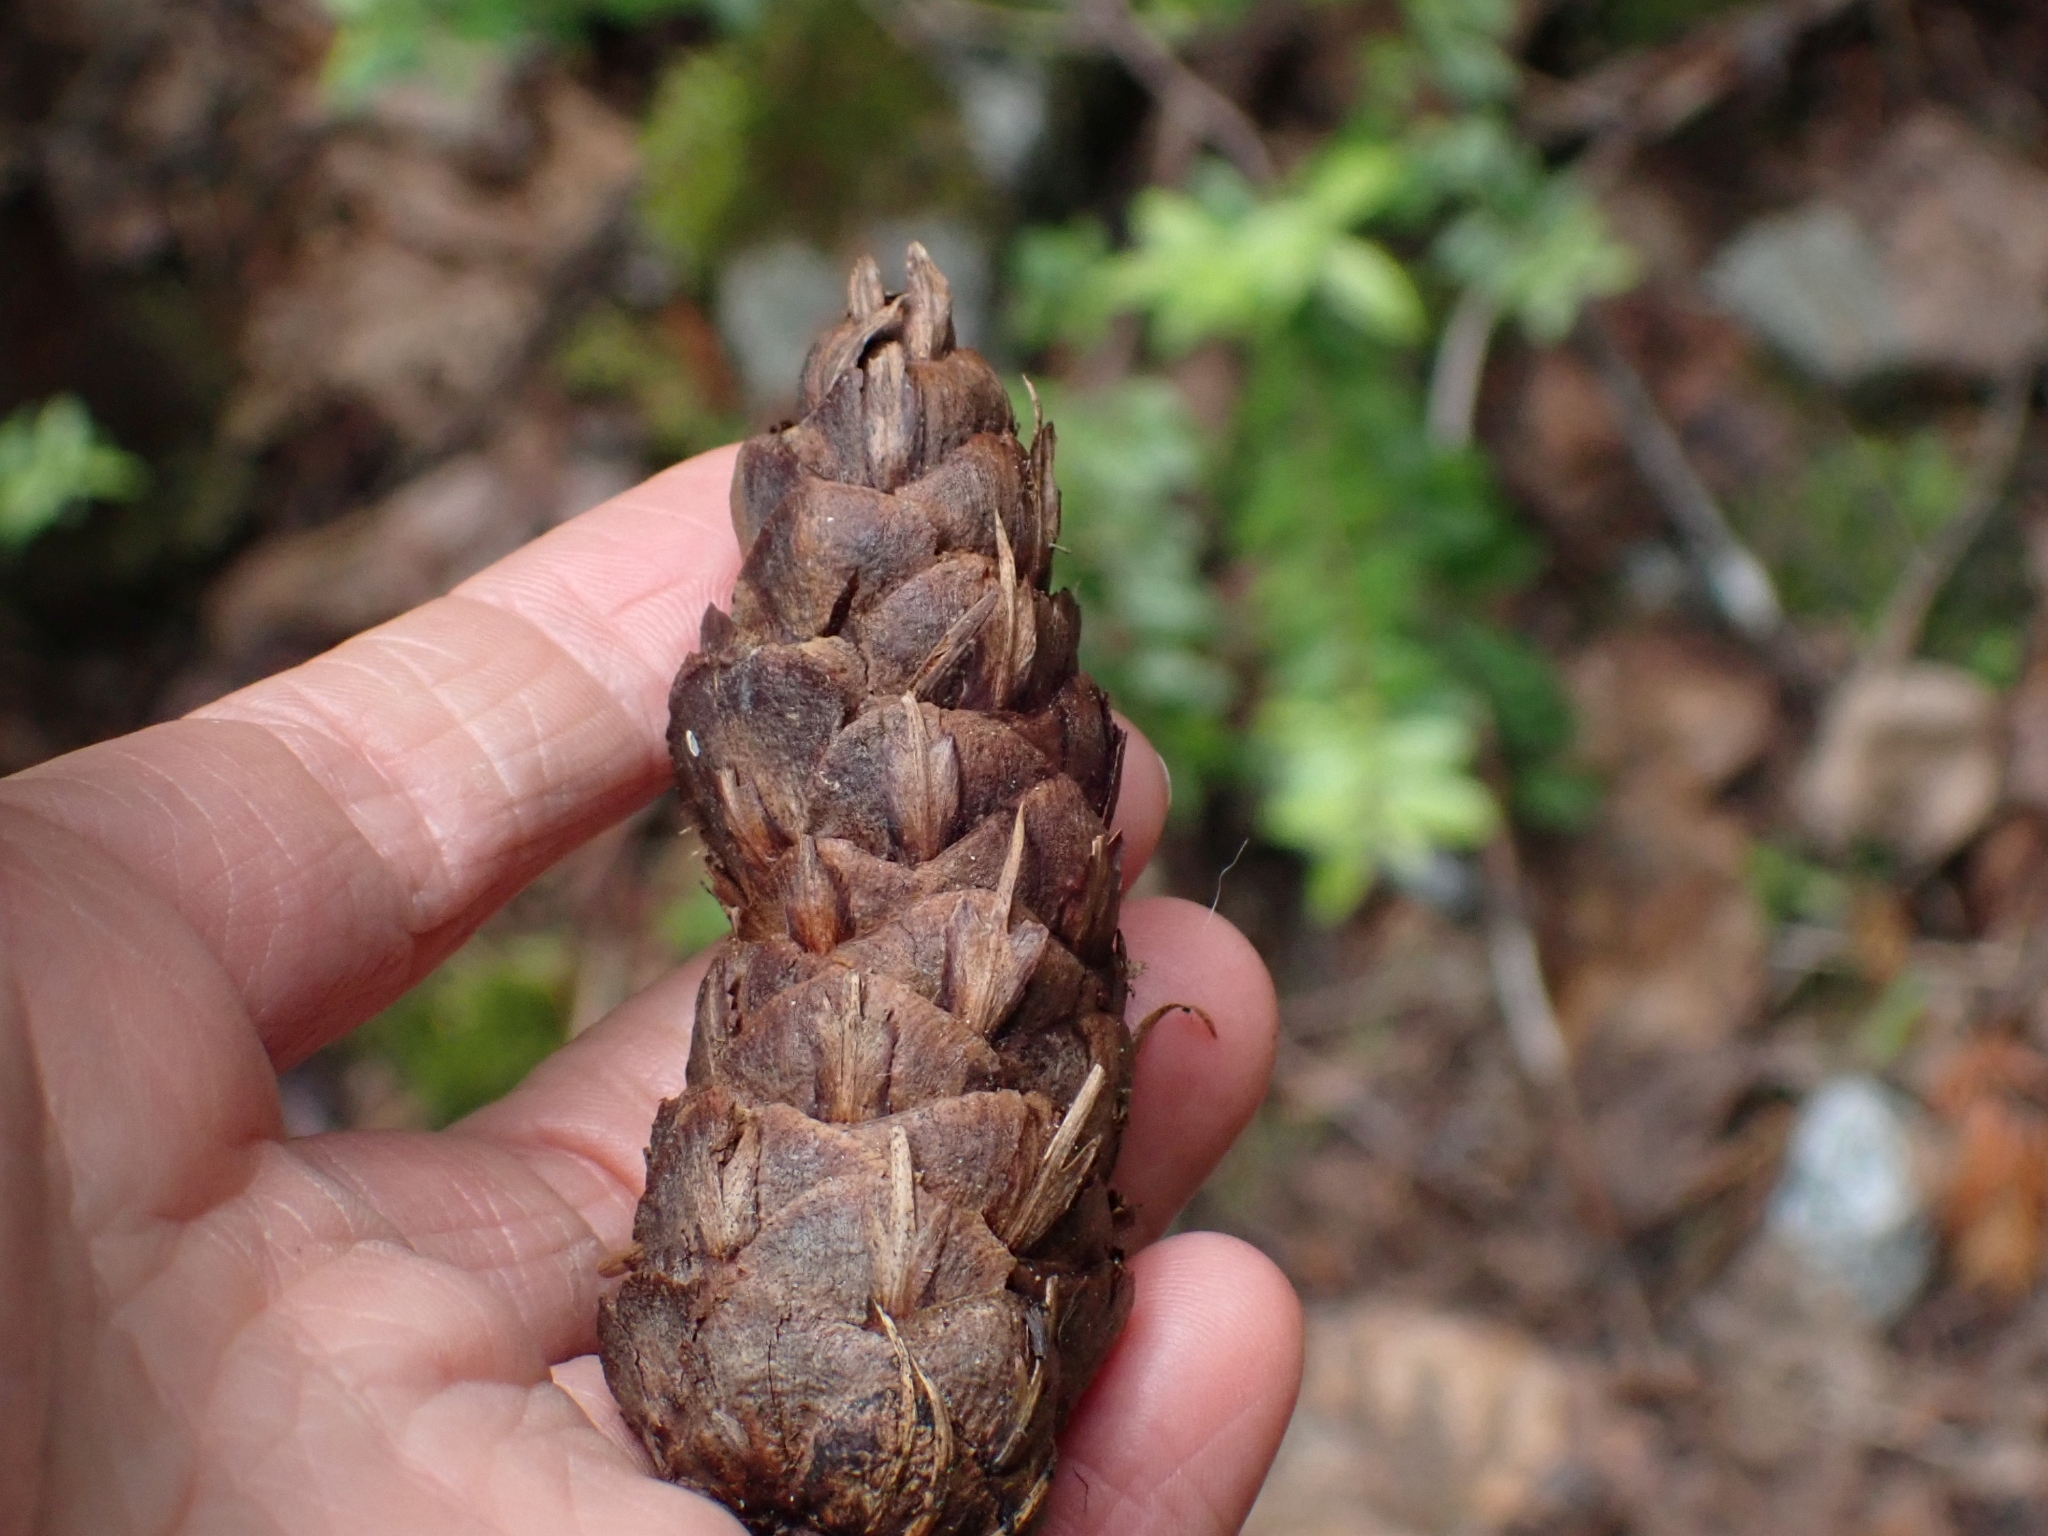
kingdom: Plantae
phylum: Tracheophyta
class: Pinopsida
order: Pinales
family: Pinaceae
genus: Pseudotsuga
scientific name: Pseudotsuga menziesii
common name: Douglas fir
